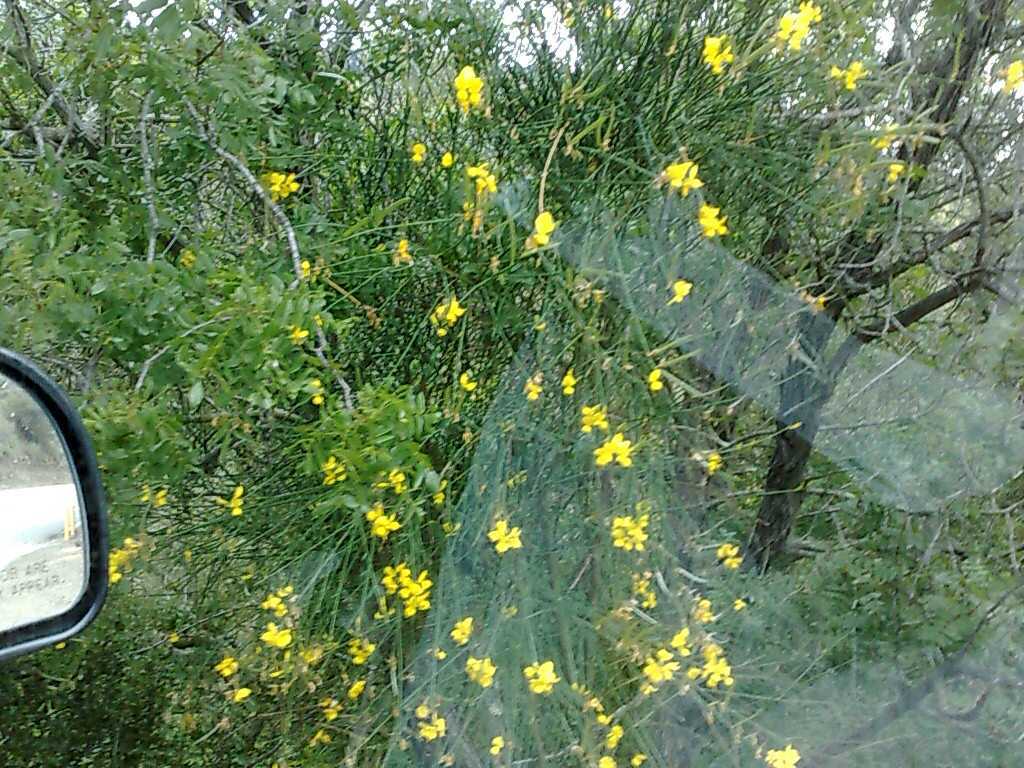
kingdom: Plantae
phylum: Tracheophyta
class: Magnoliopsida
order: Fabales
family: Fabaceae
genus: Spartium
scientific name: Spartium junceum
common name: Spanish broom
